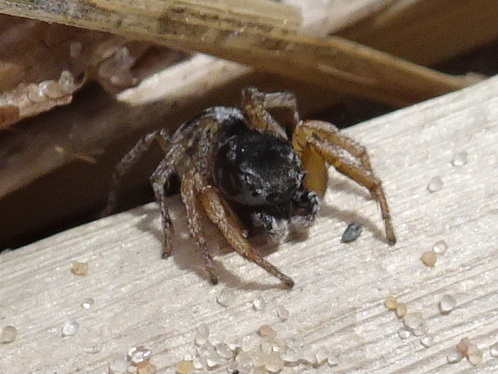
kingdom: Animalia
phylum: Arthropoda
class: Arachnida
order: Araneae
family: Salticidae
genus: Habronattus
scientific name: Habronattus borealis
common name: Boreal paradise spider
